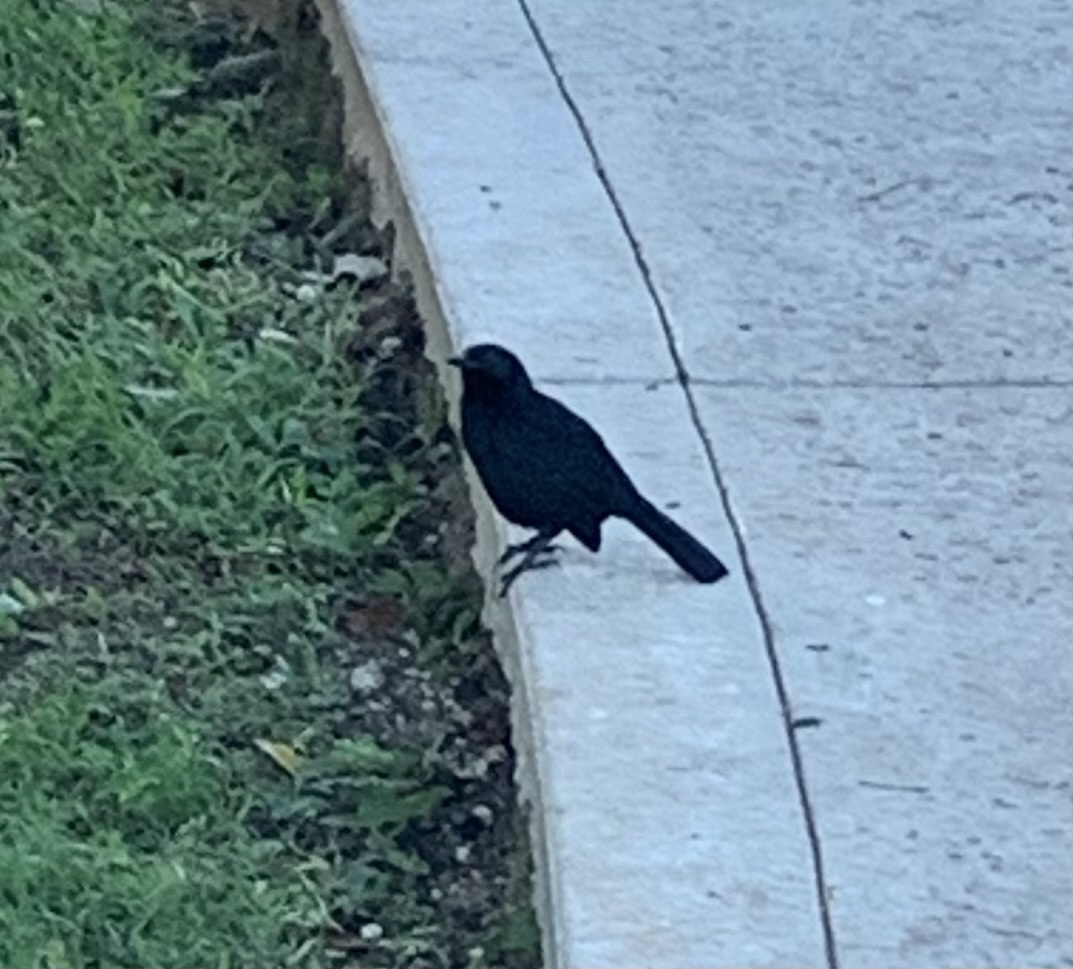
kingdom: Animalia
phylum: Chordata
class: Aves
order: Passeriformes
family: Icteridae
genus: Dives
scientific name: Dives dives
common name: Melodious blackbird
